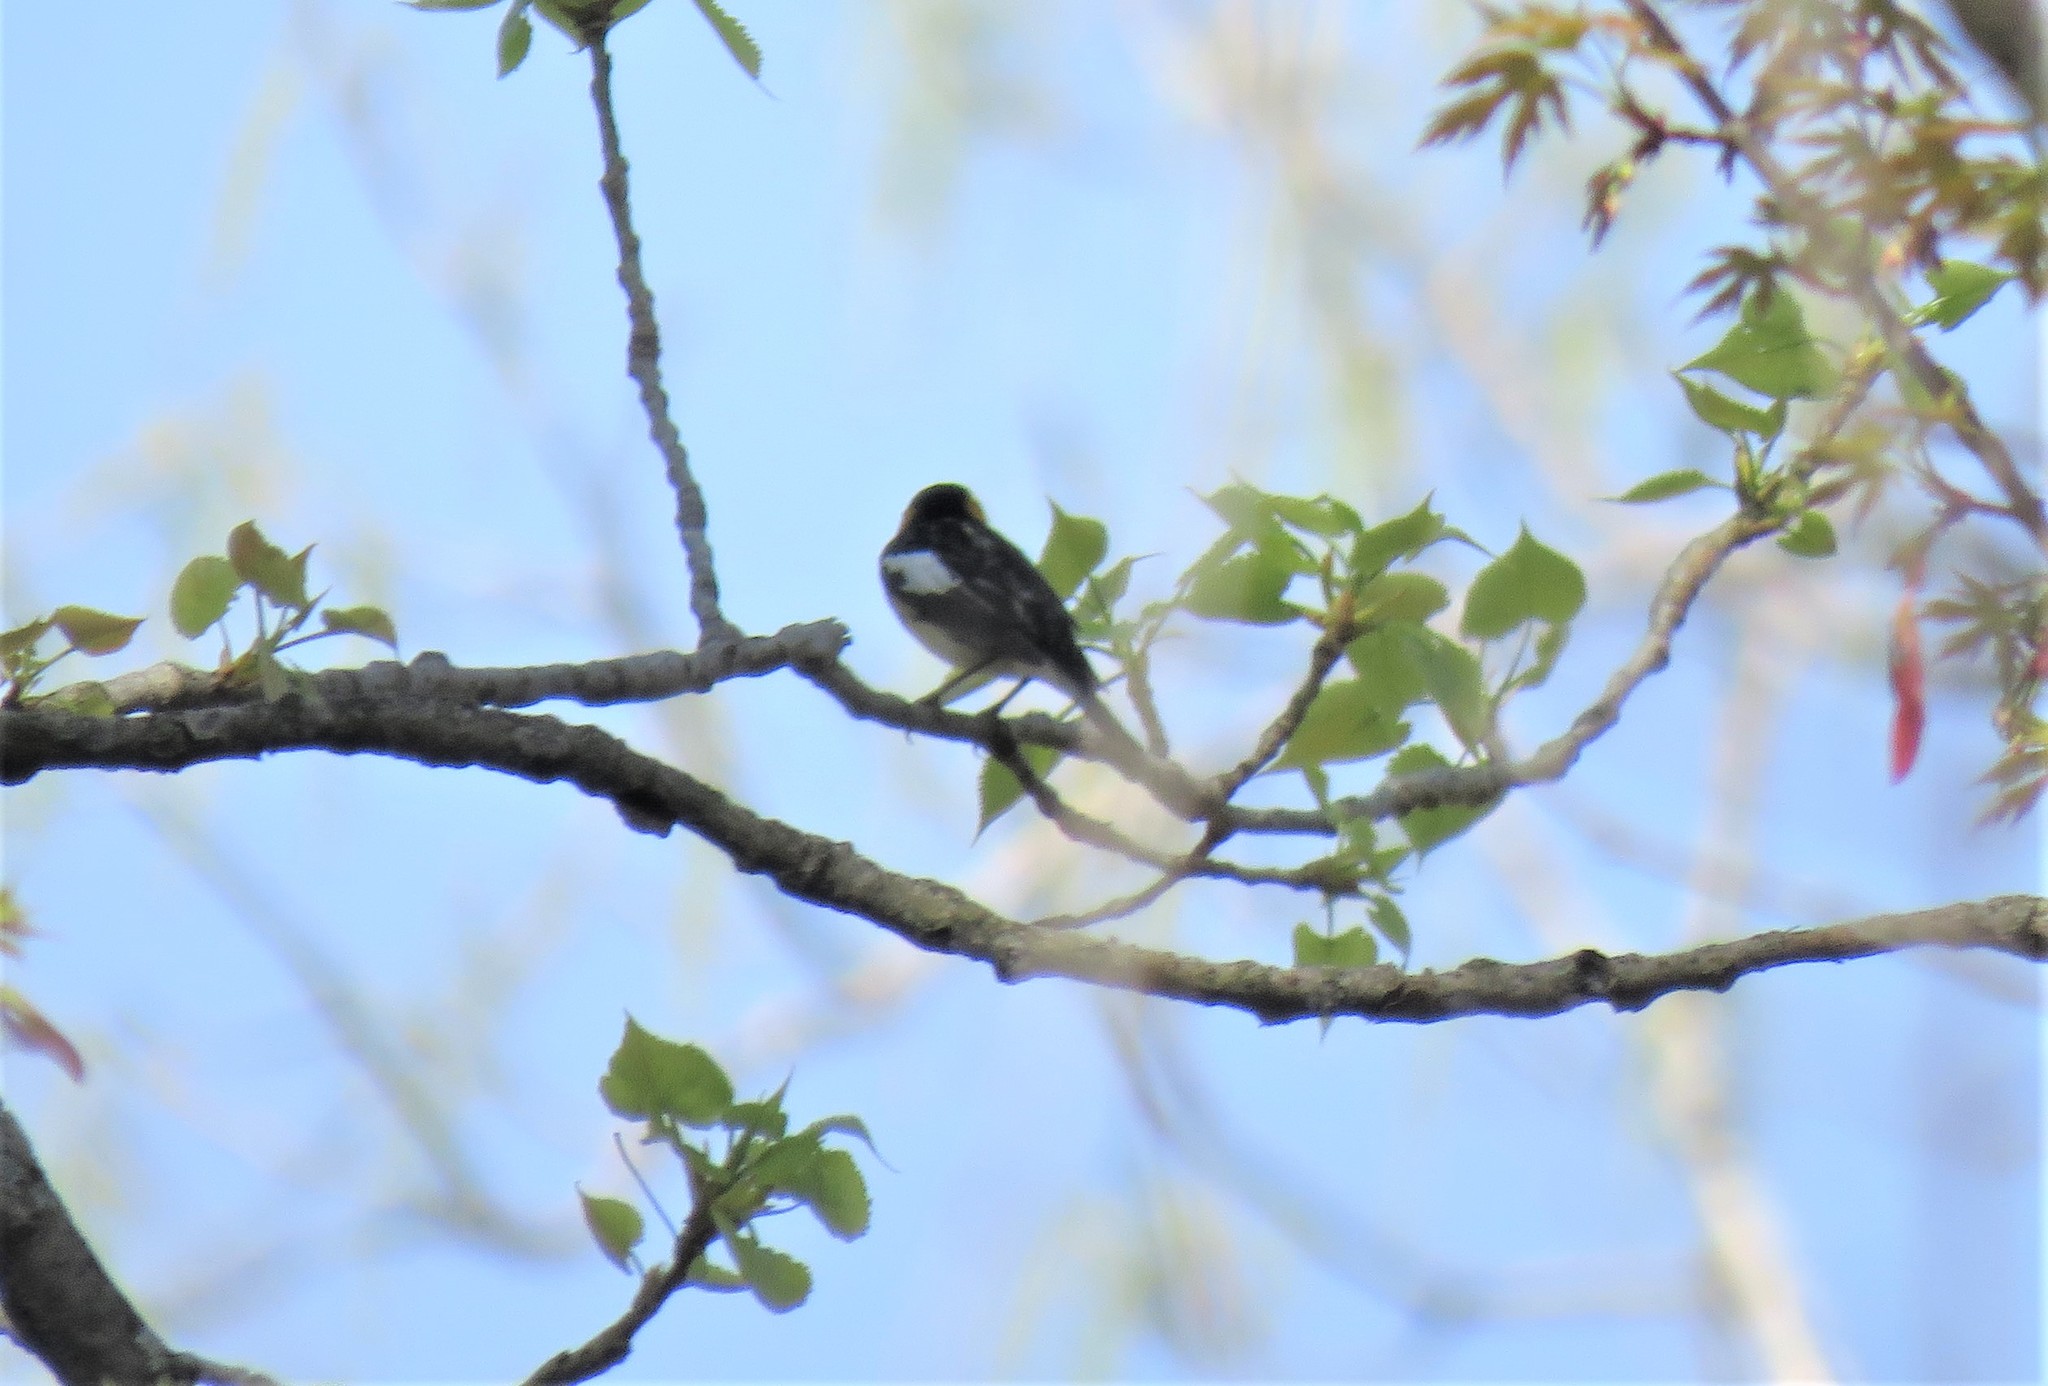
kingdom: Animalia
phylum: Chordata
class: Aves
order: Passeriformes
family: Parulidae
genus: Setophaga
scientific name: Setophaga fusca
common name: Blackburnian warbler
